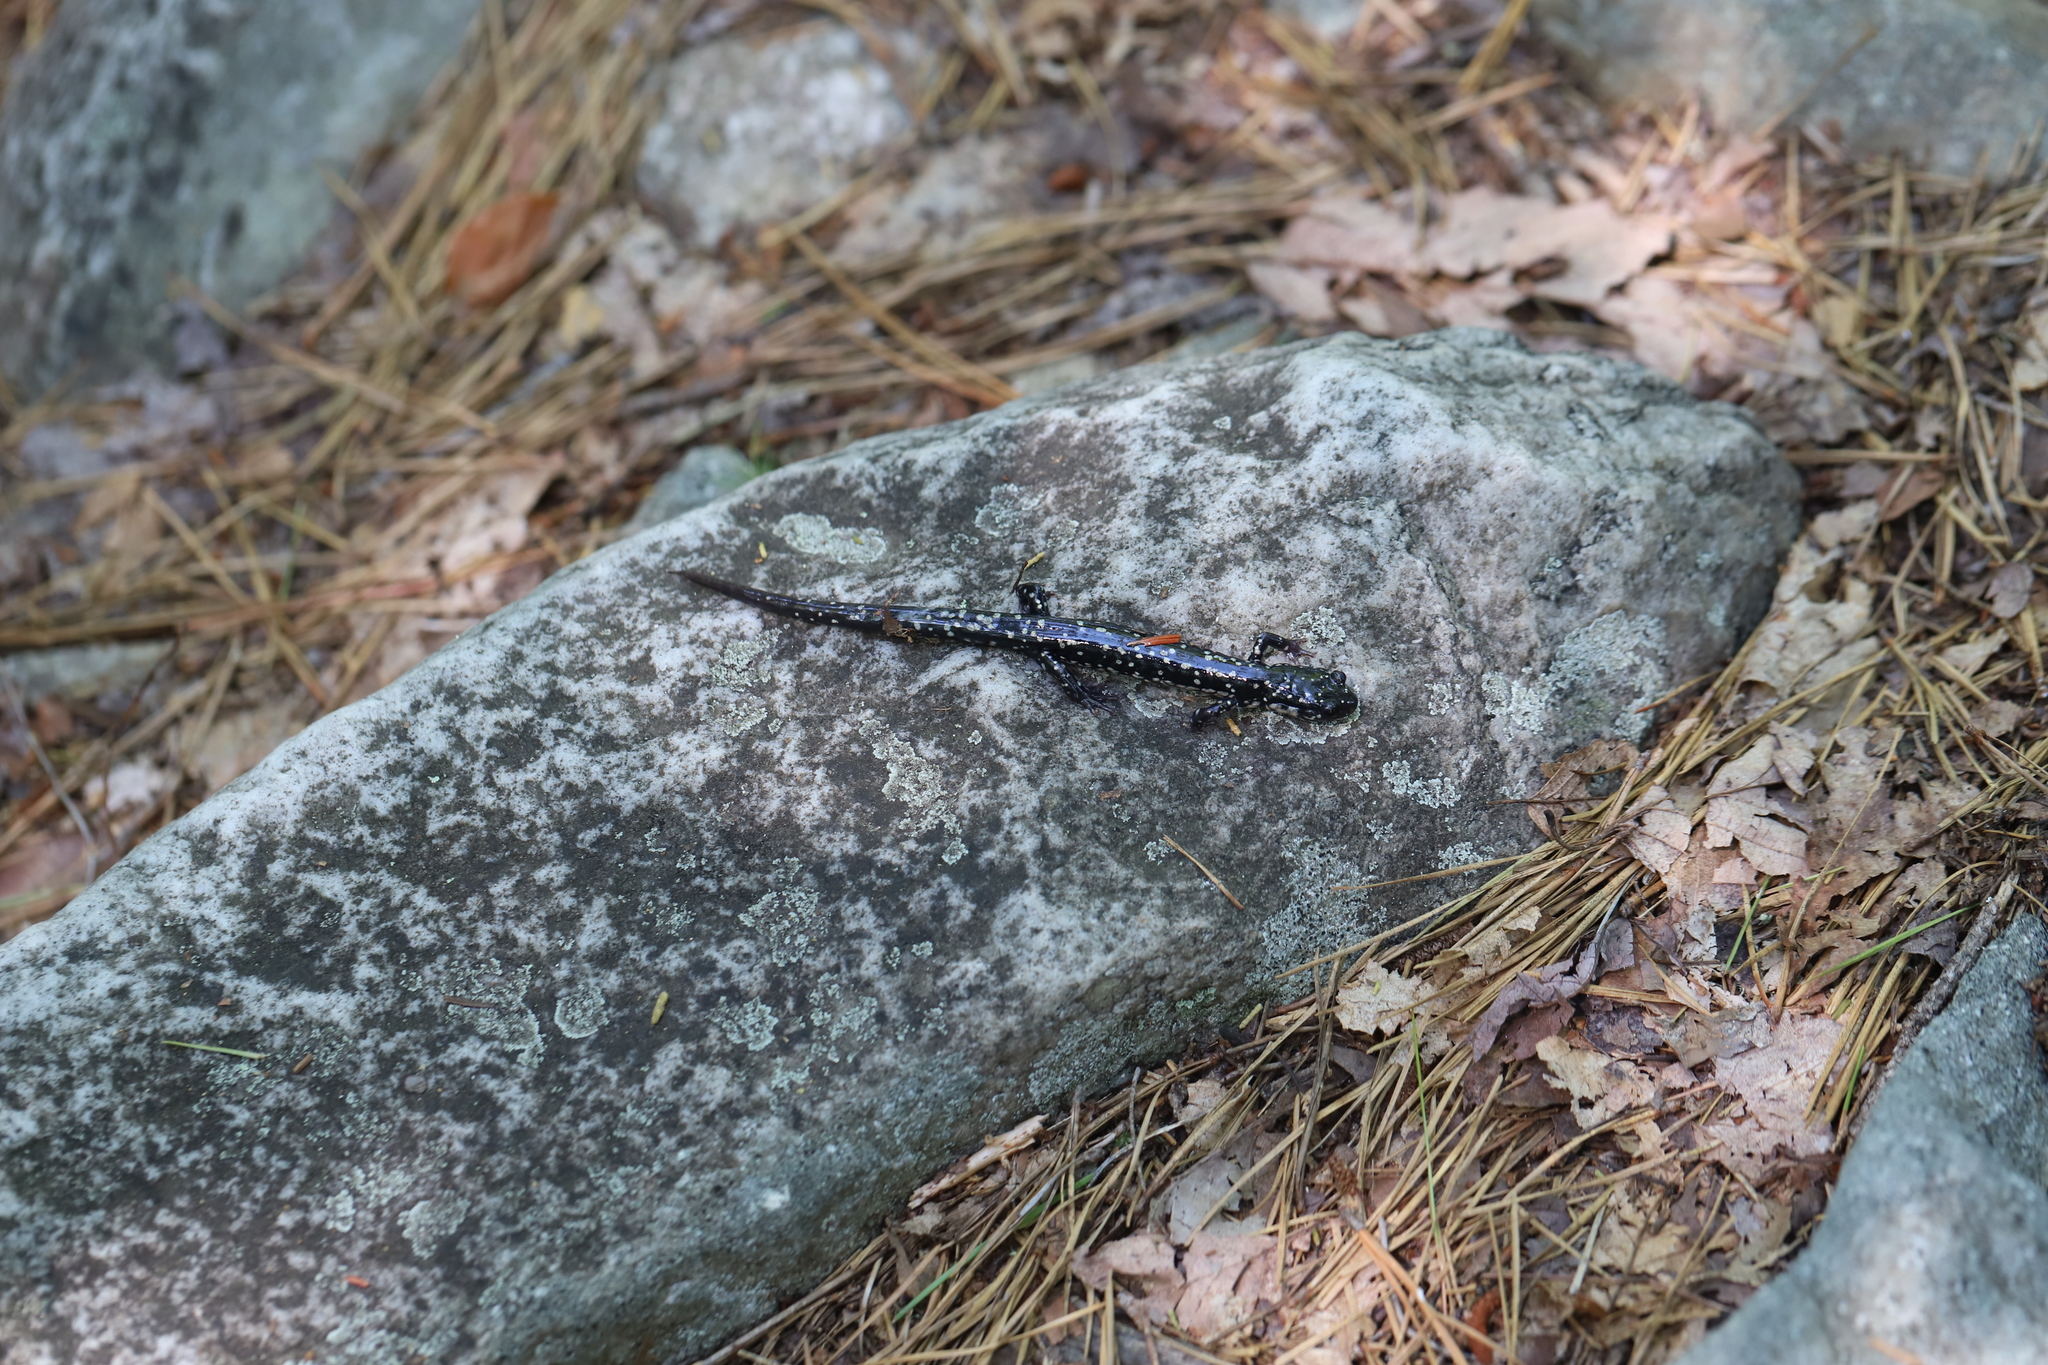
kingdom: Animalia
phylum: Chordata
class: Amphibia
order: Caudata
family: Plethodontidae
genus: Plethodon
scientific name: Plethodon glutinosus
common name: Northern slimy salamander
